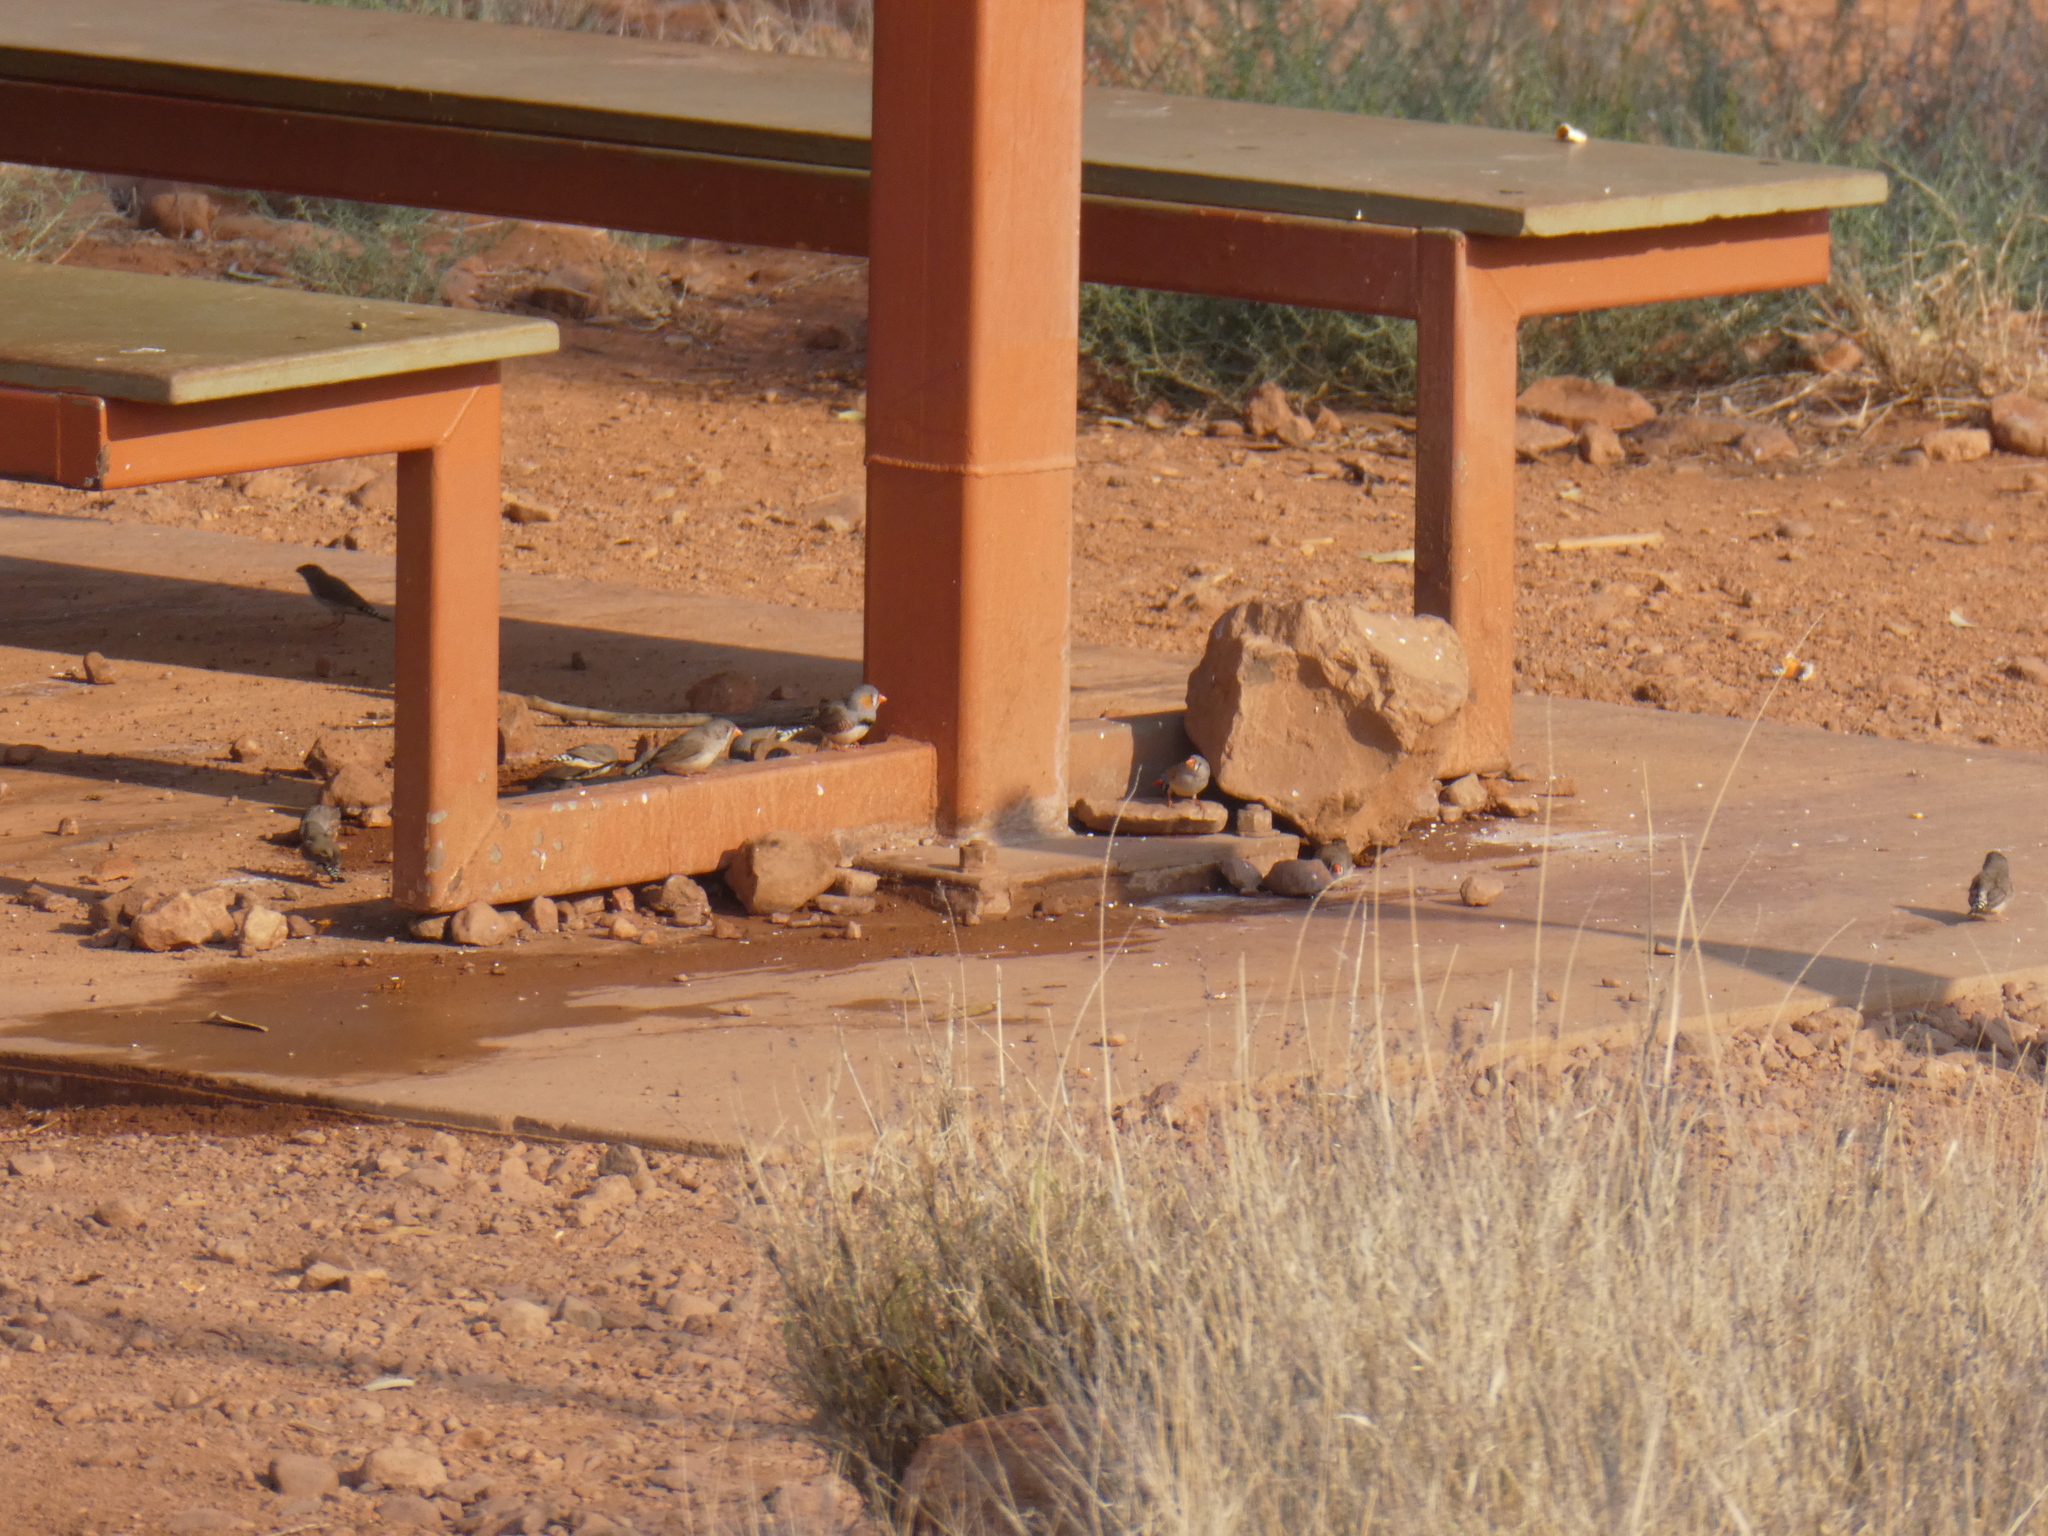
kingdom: Animalia
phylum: Chordata
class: Aves
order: Passeriformes
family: Estrildidae
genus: Taeniopygia
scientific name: Taeniopygia guttata
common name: Zebra finch
